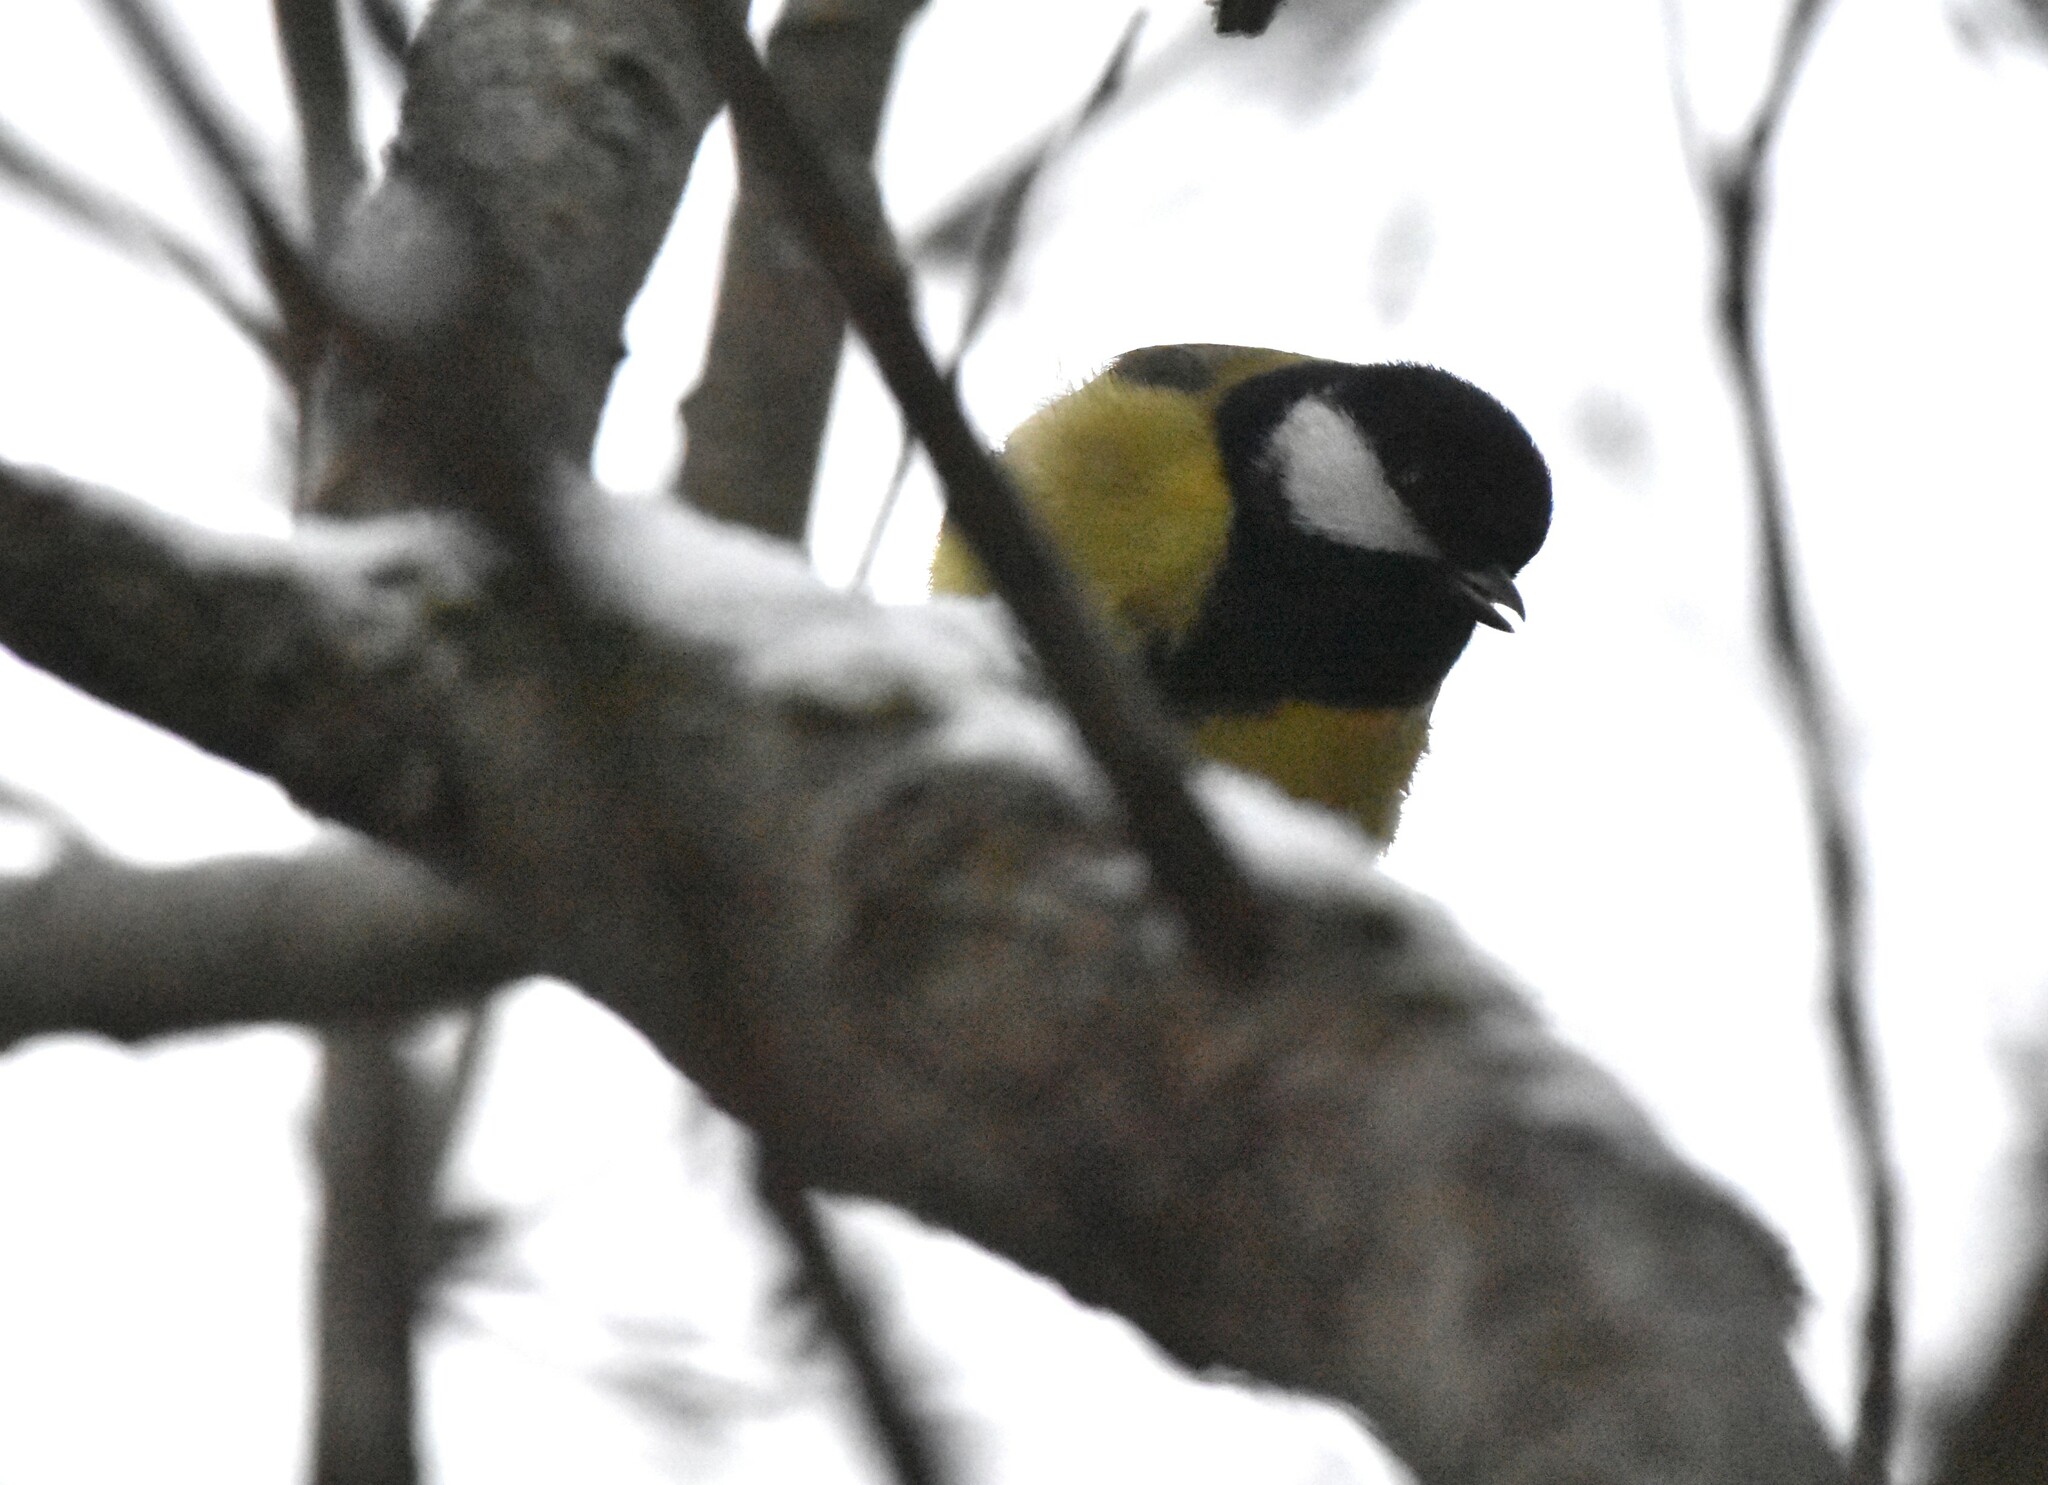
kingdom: Animalia
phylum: Chordata
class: Aves
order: Passeriformes
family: Paridae
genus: Parus
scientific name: Parus major
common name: Great tit
